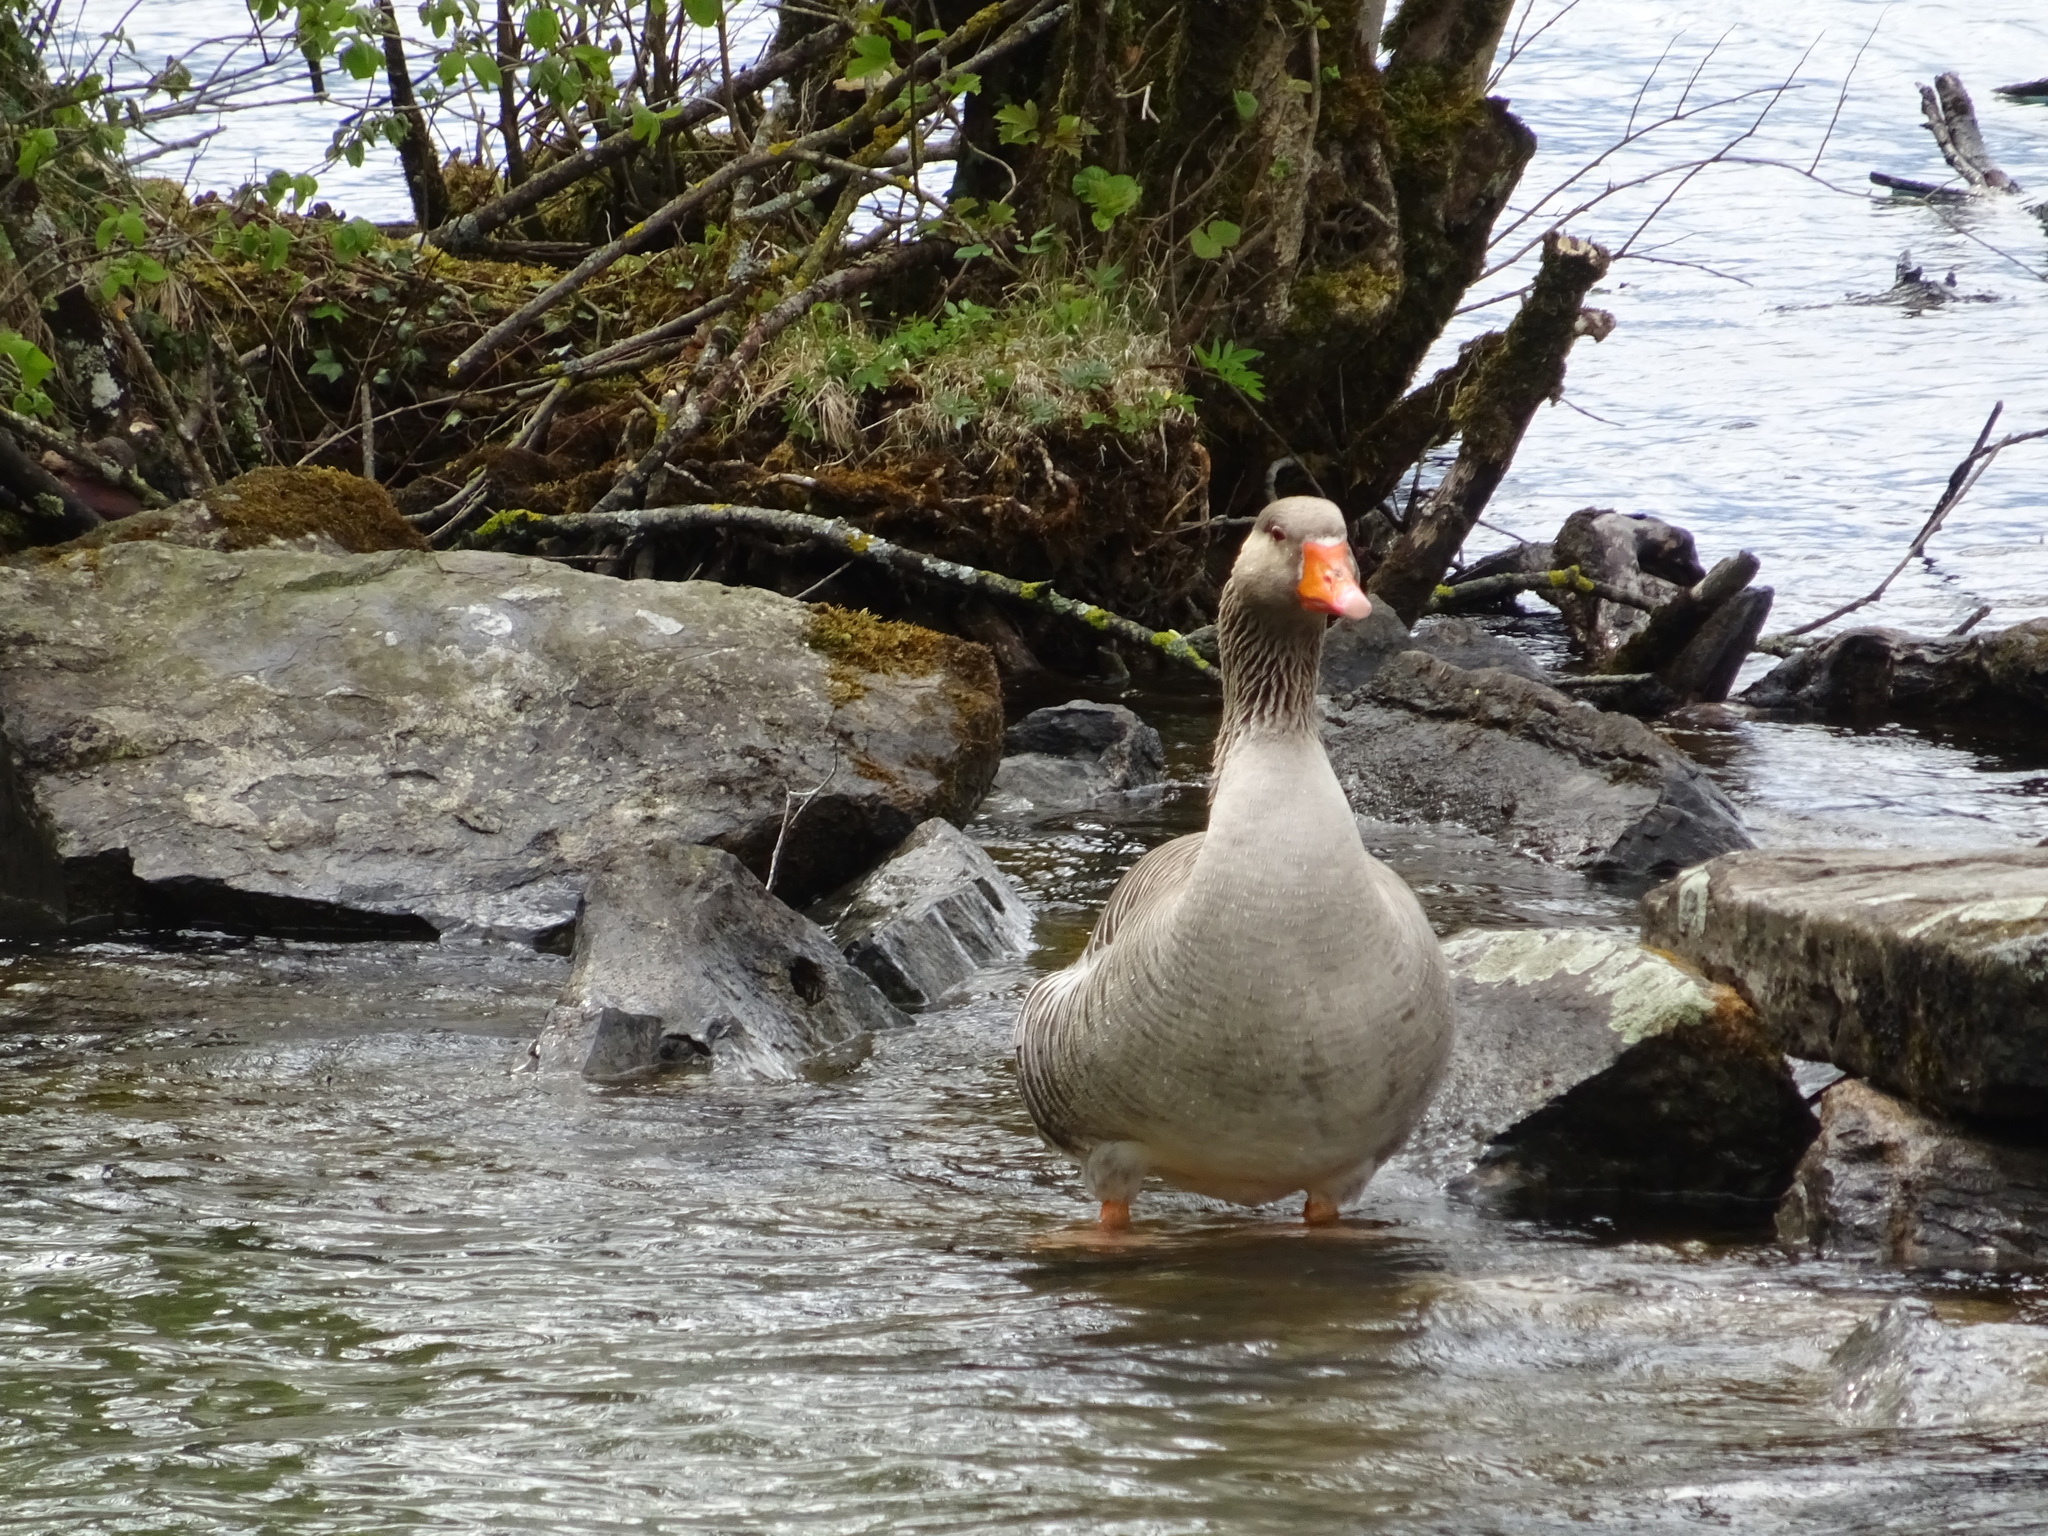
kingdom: Animalia
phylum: Chordata
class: Aves
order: Anseriformes
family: Anatidae
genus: Anser
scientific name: Anser anser
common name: Greylag goose
